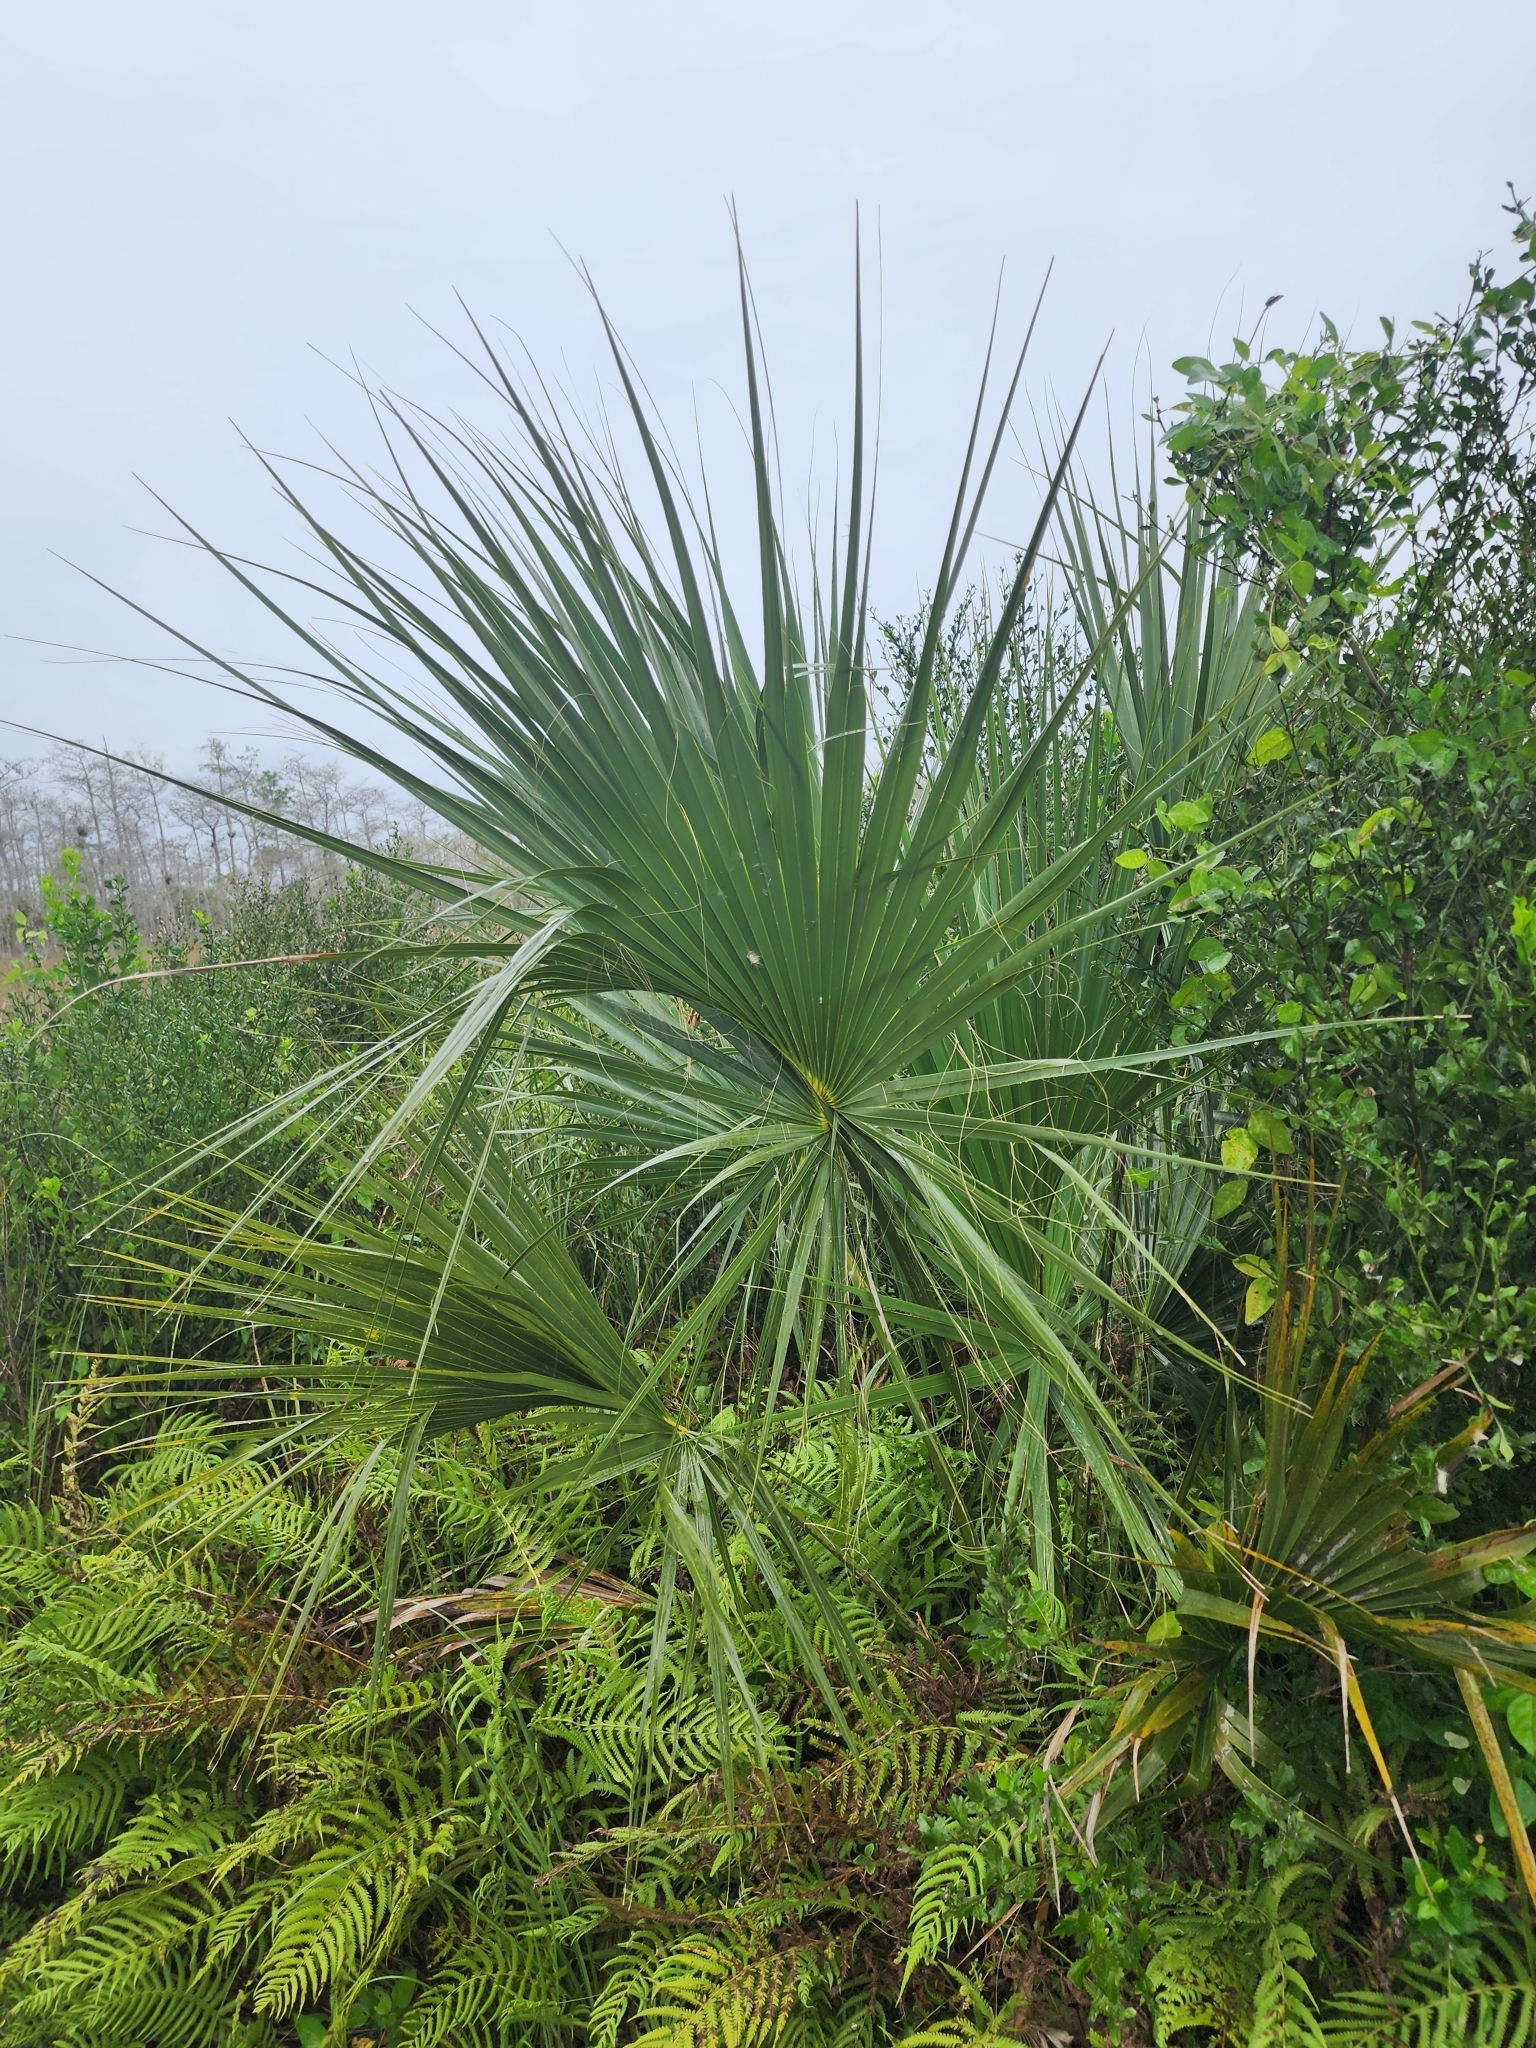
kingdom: Plantae
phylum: Tracheophyta
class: Liliopsida
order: Arecales
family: Arecaceae
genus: Sabal
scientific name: Sabal palmetto
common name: Blue palmetto
